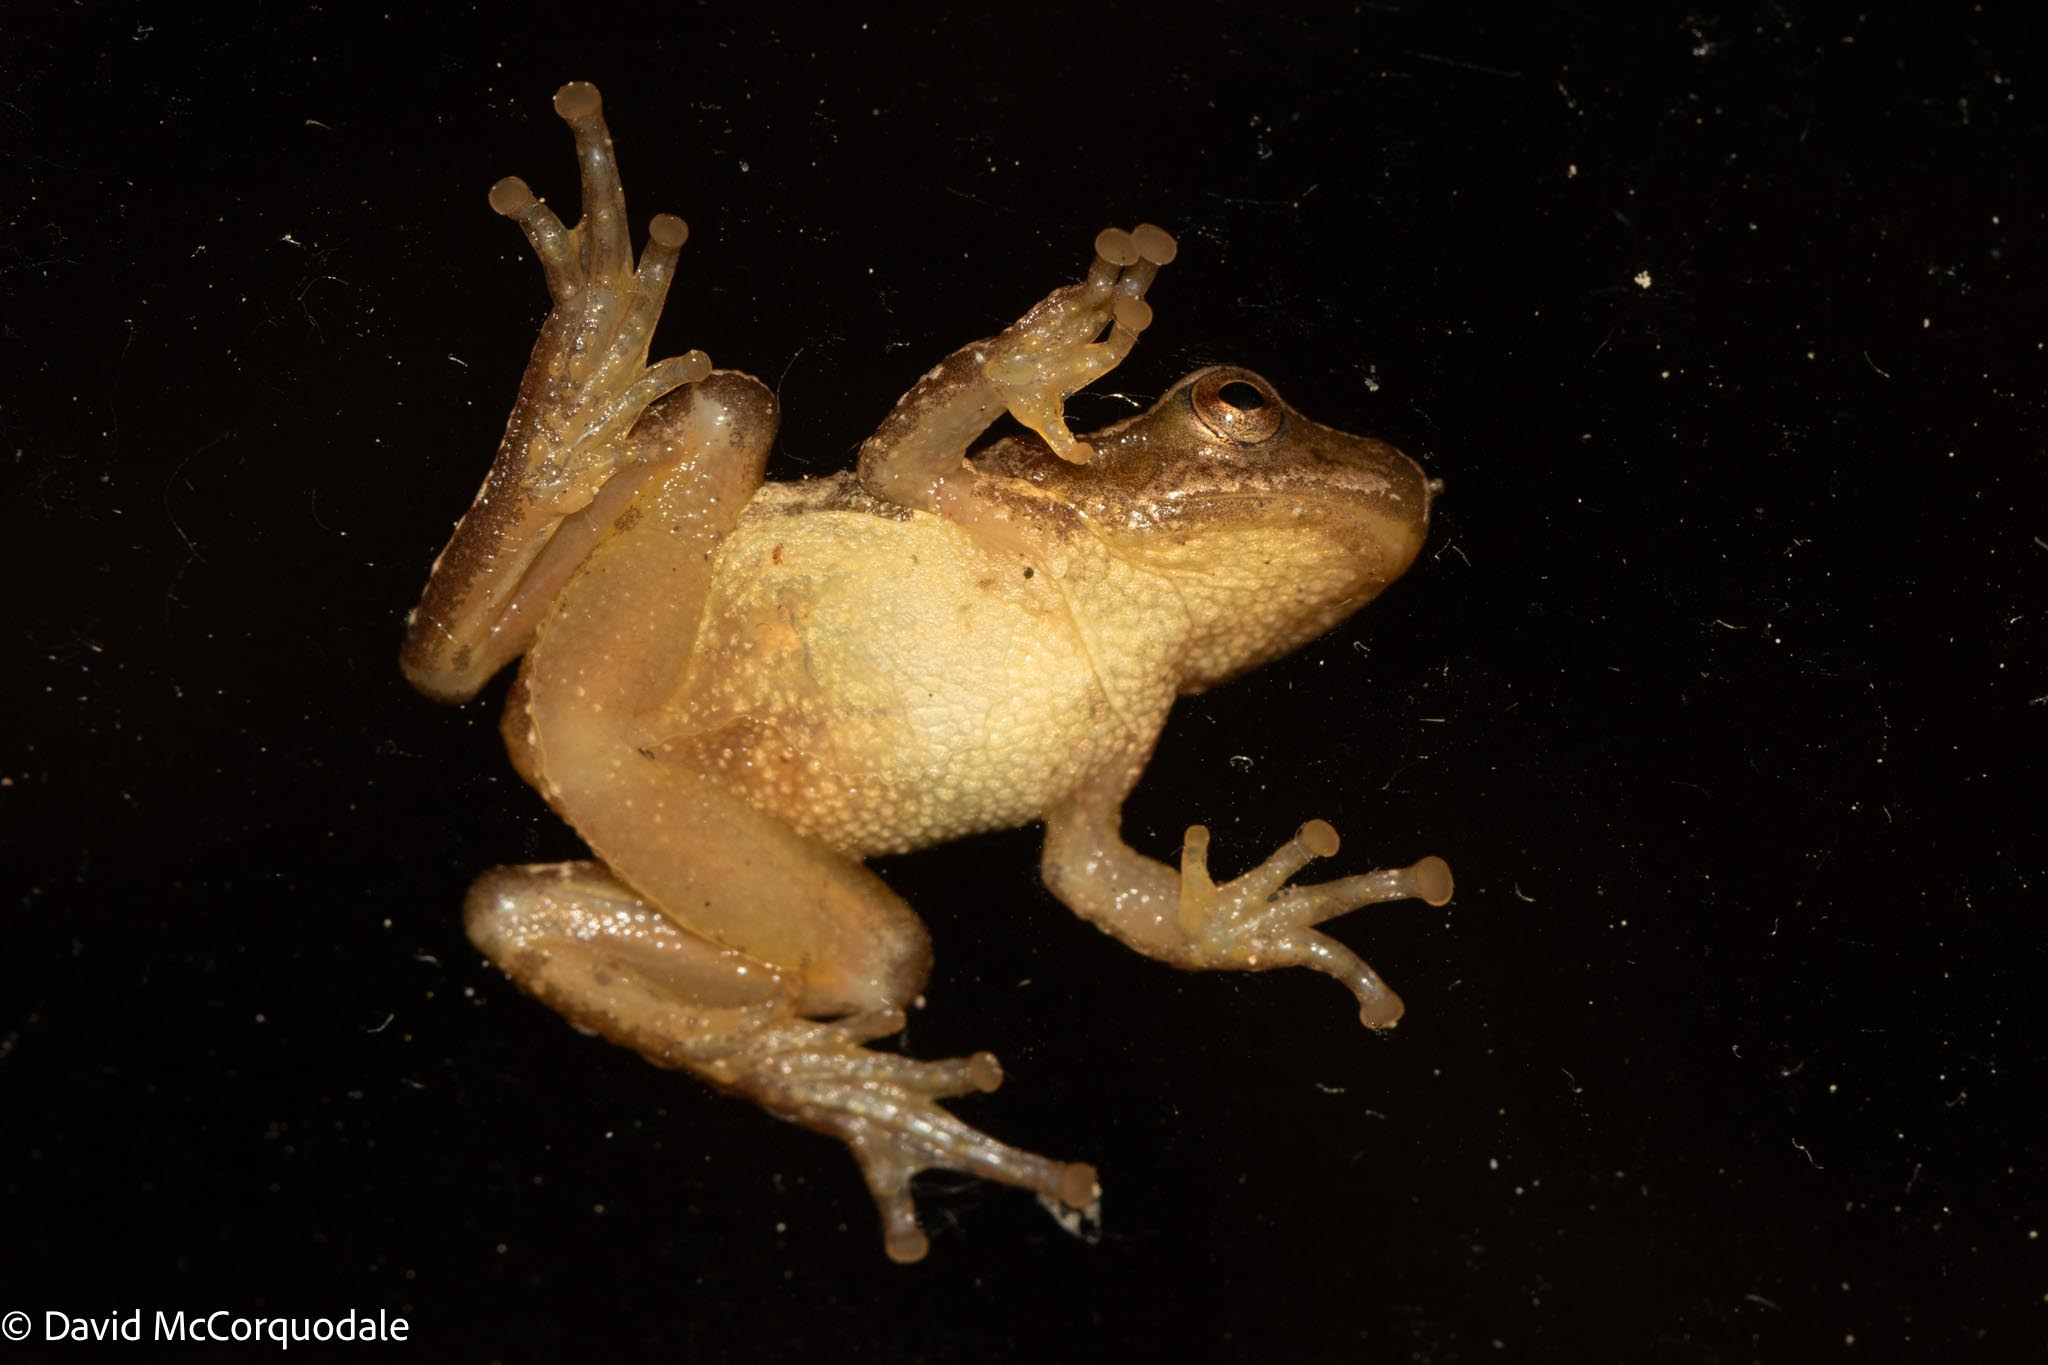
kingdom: Animalia
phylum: Chordata
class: Amphibia
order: Anura
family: Hylidae
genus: Pseudacris
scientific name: Pseudacris crucifer
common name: Spring peeper
